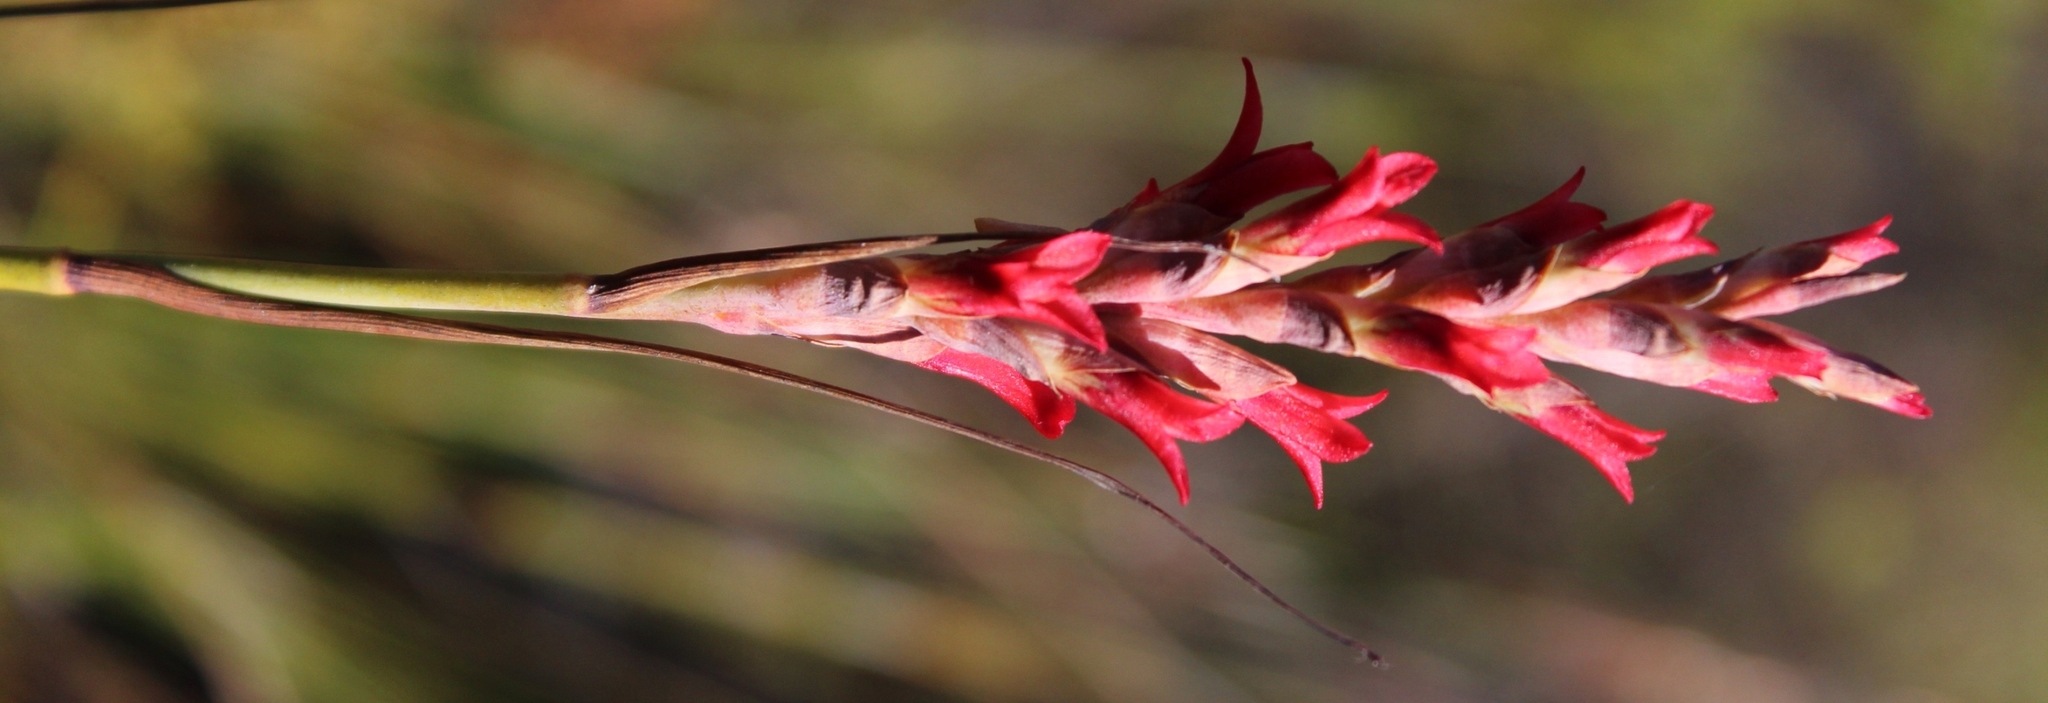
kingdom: Plantae
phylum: Tracheophyta
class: Liliopsida
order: Asparagales
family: Iridaceae
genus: Tritoniopsis
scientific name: Tritoniopsis triticea
